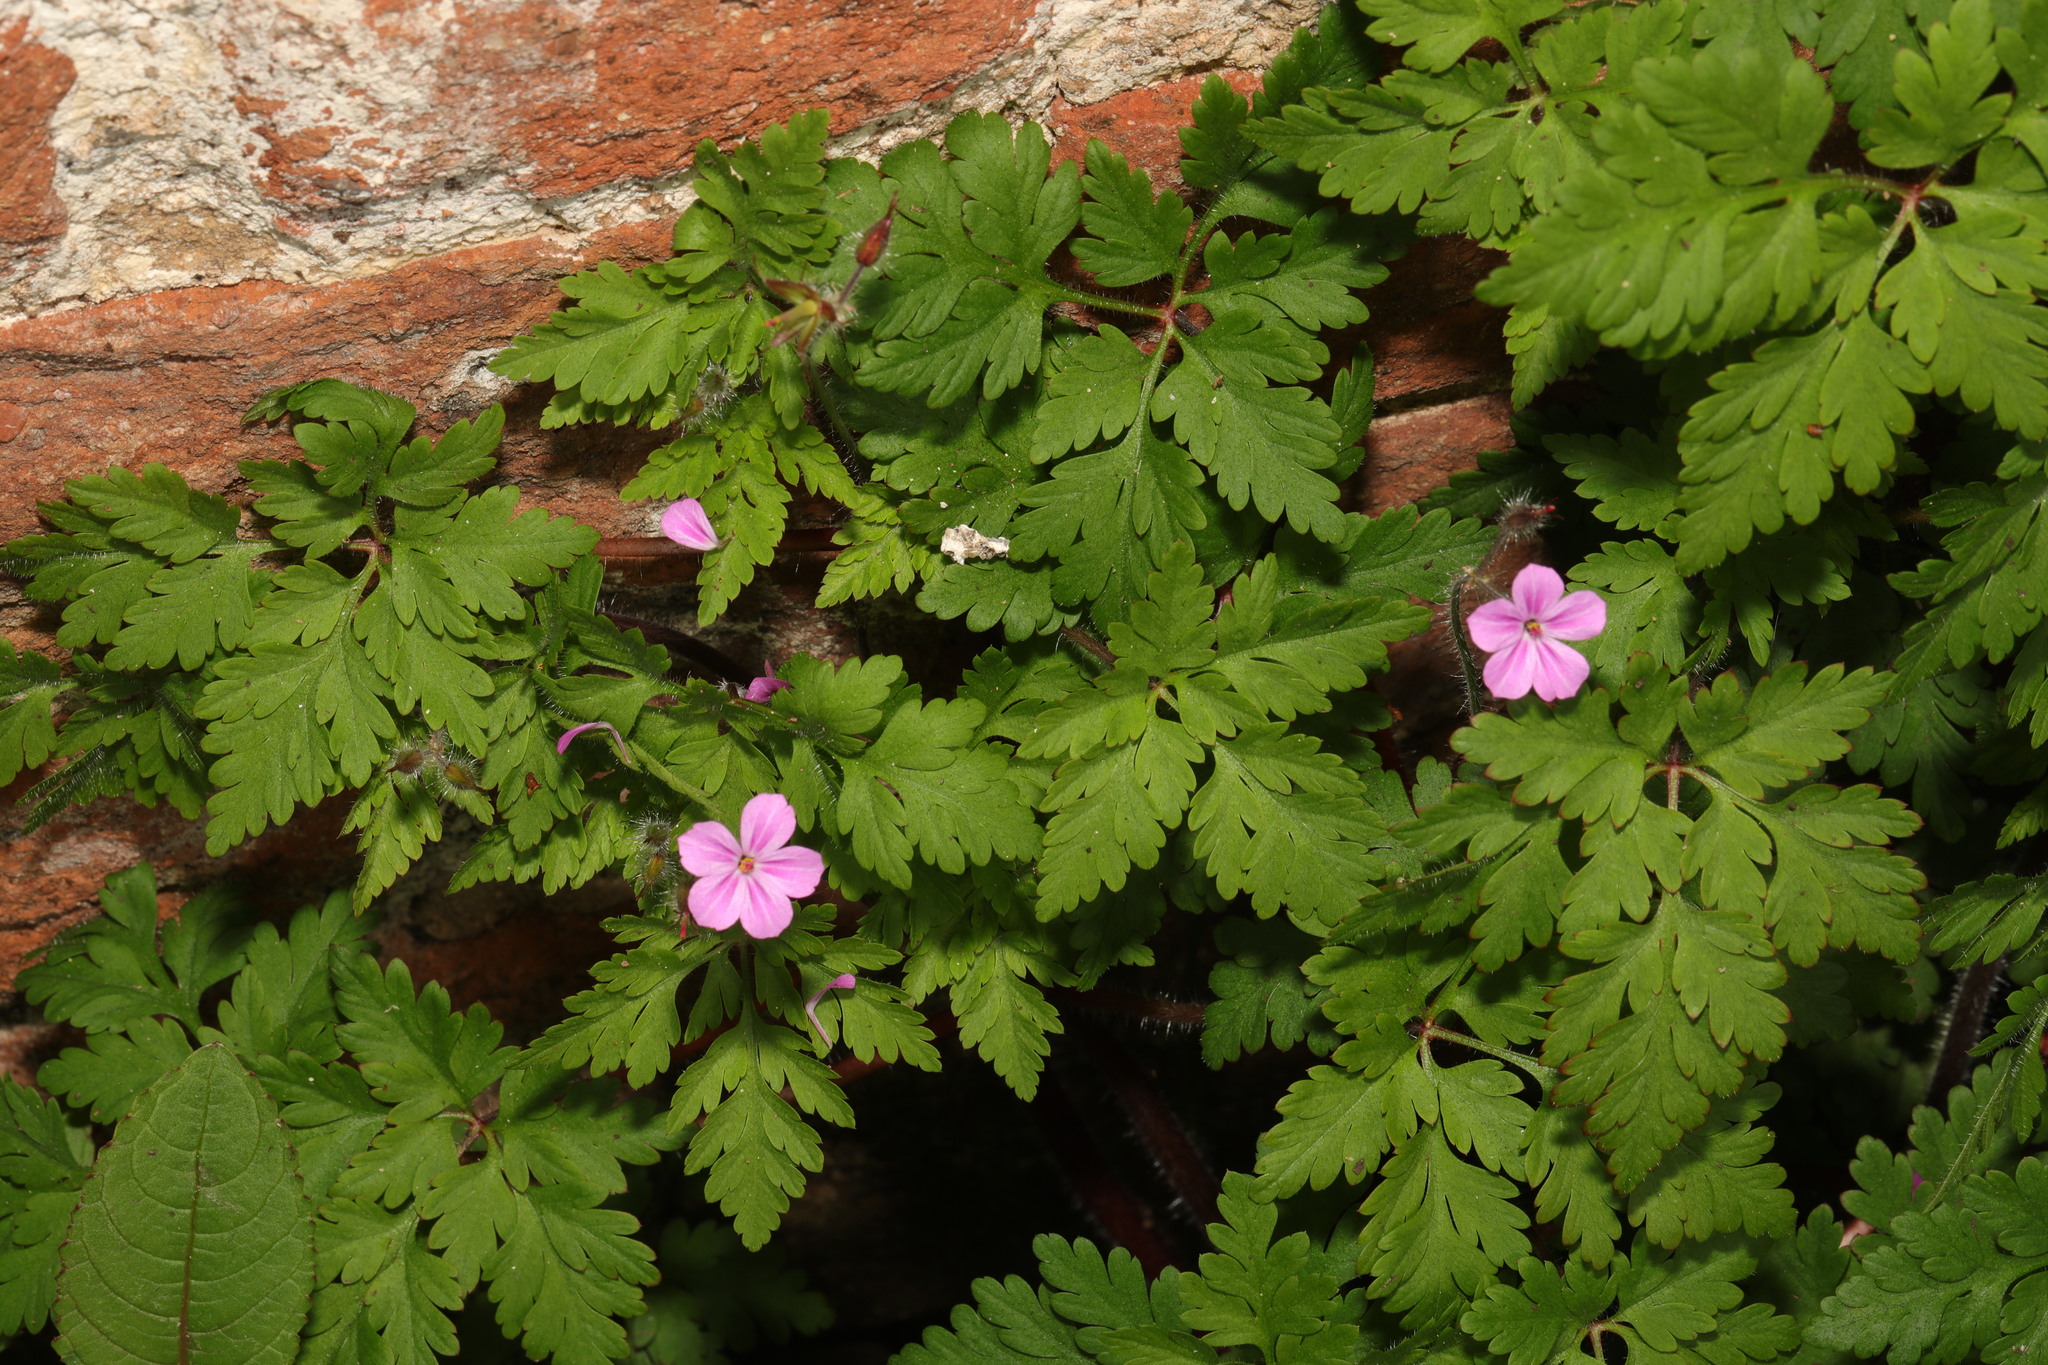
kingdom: Plantae
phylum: Tracheophyta
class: Magnoliopsida
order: Geraniales
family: Geraniaceae
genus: Geranium
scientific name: Geranium robertianum
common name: Herb-robert
